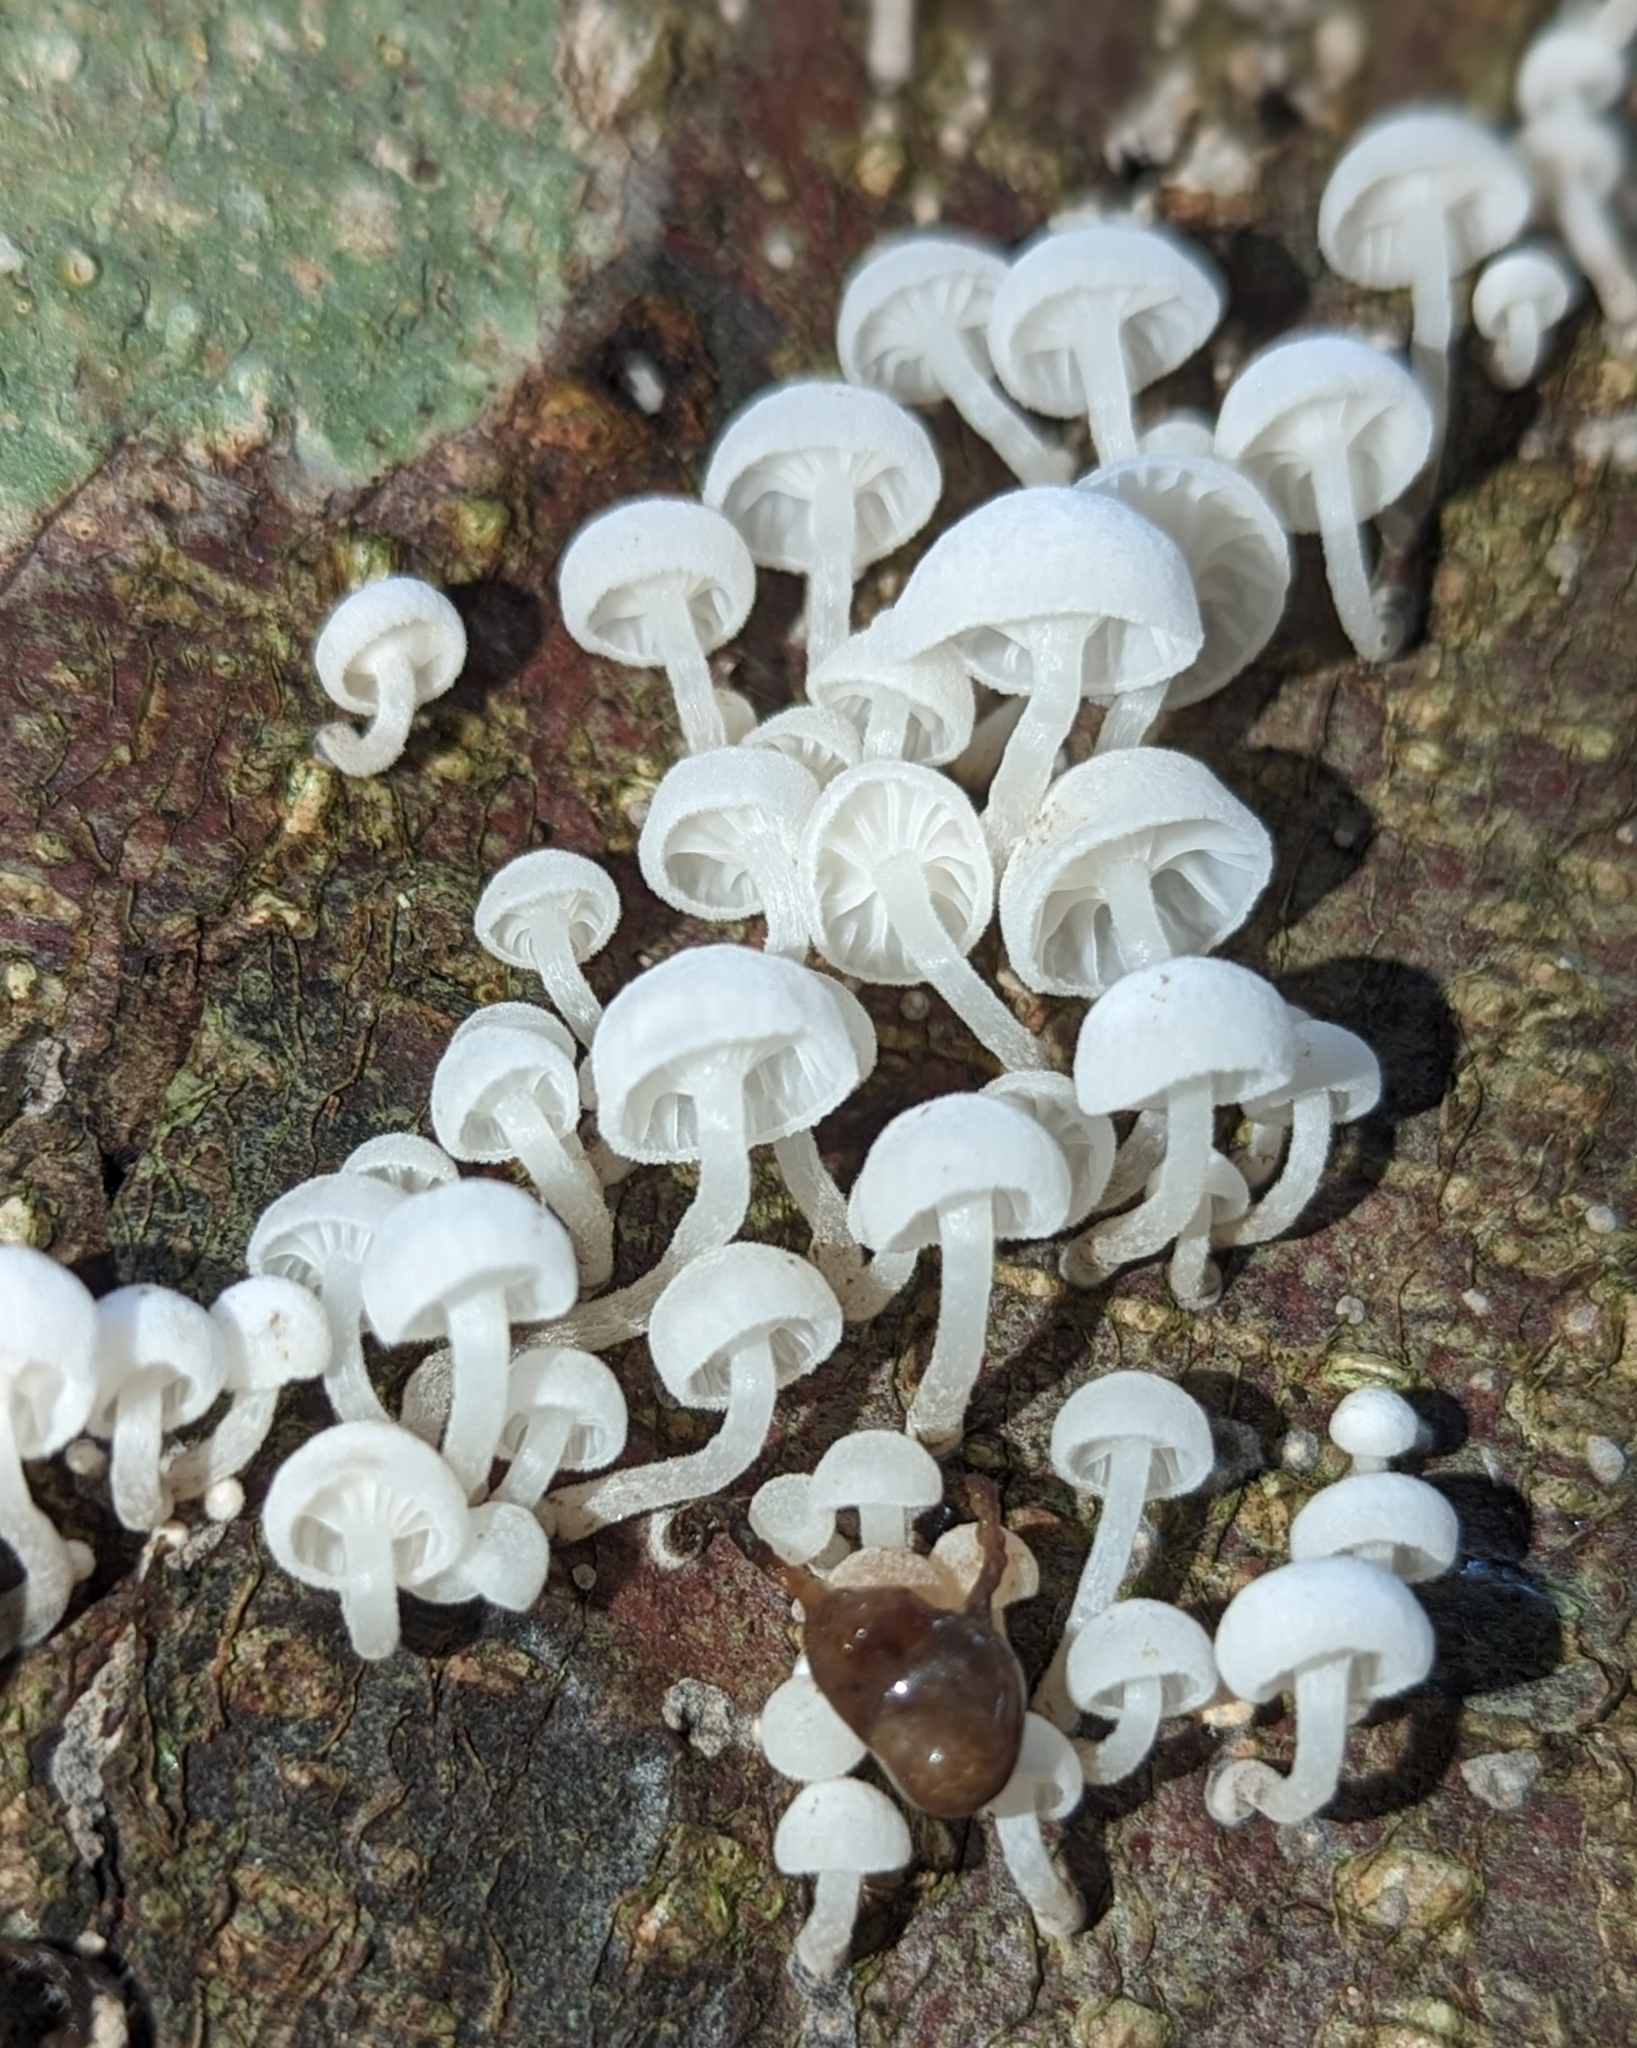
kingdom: Fungi
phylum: Basidiomycota
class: Agaricomycetes
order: Agaricales
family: Omphalotaceae
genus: Marasmiellus
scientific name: Marasmiellus candidus
